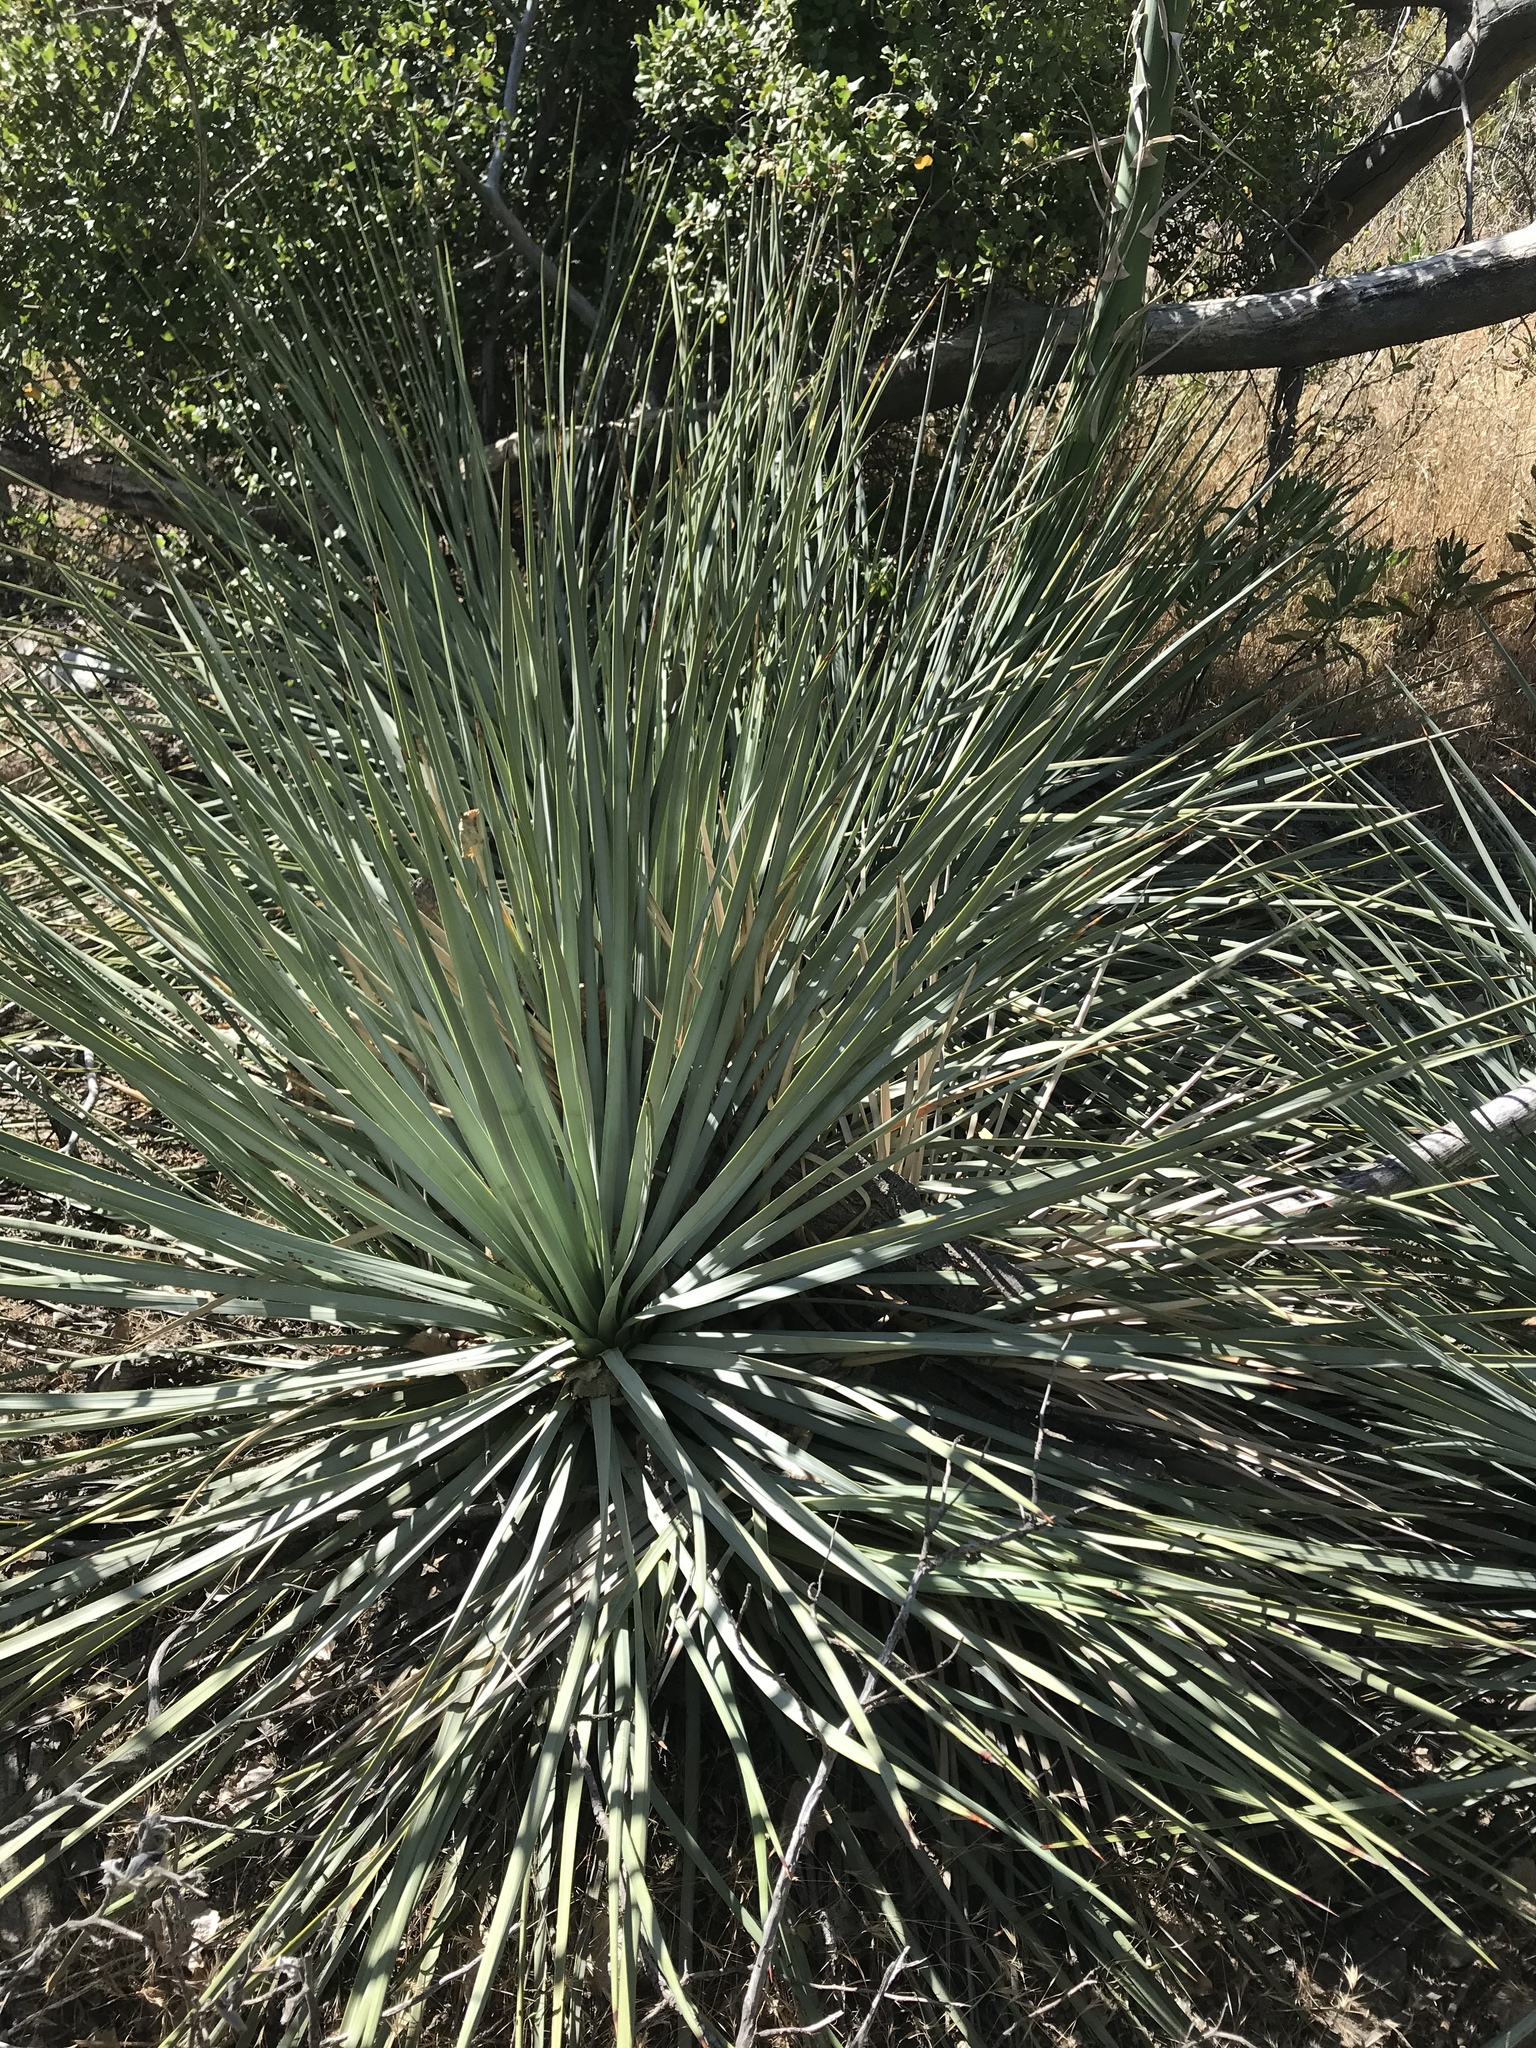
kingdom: Plantae
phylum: Tracheophyta
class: Liliopsida
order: Asparagales
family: Asparagaceae
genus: Hesperoyucca
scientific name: Hesperoyucca whipplei
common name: Our lord's-candle
